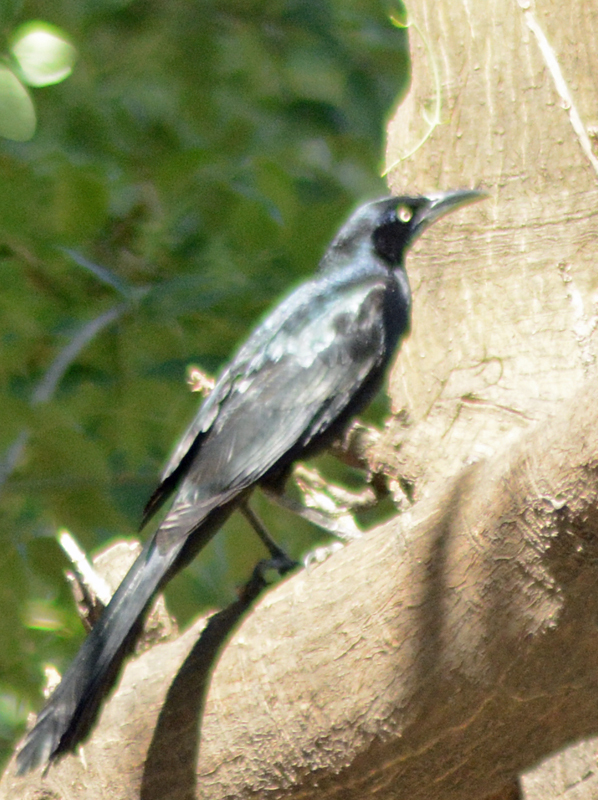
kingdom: Animalia
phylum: Chordata
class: Aves
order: Passeriformes
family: Icteridae
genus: Quiscalus
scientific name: Quiscalus mexicanus
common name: Great-tailed grackle
